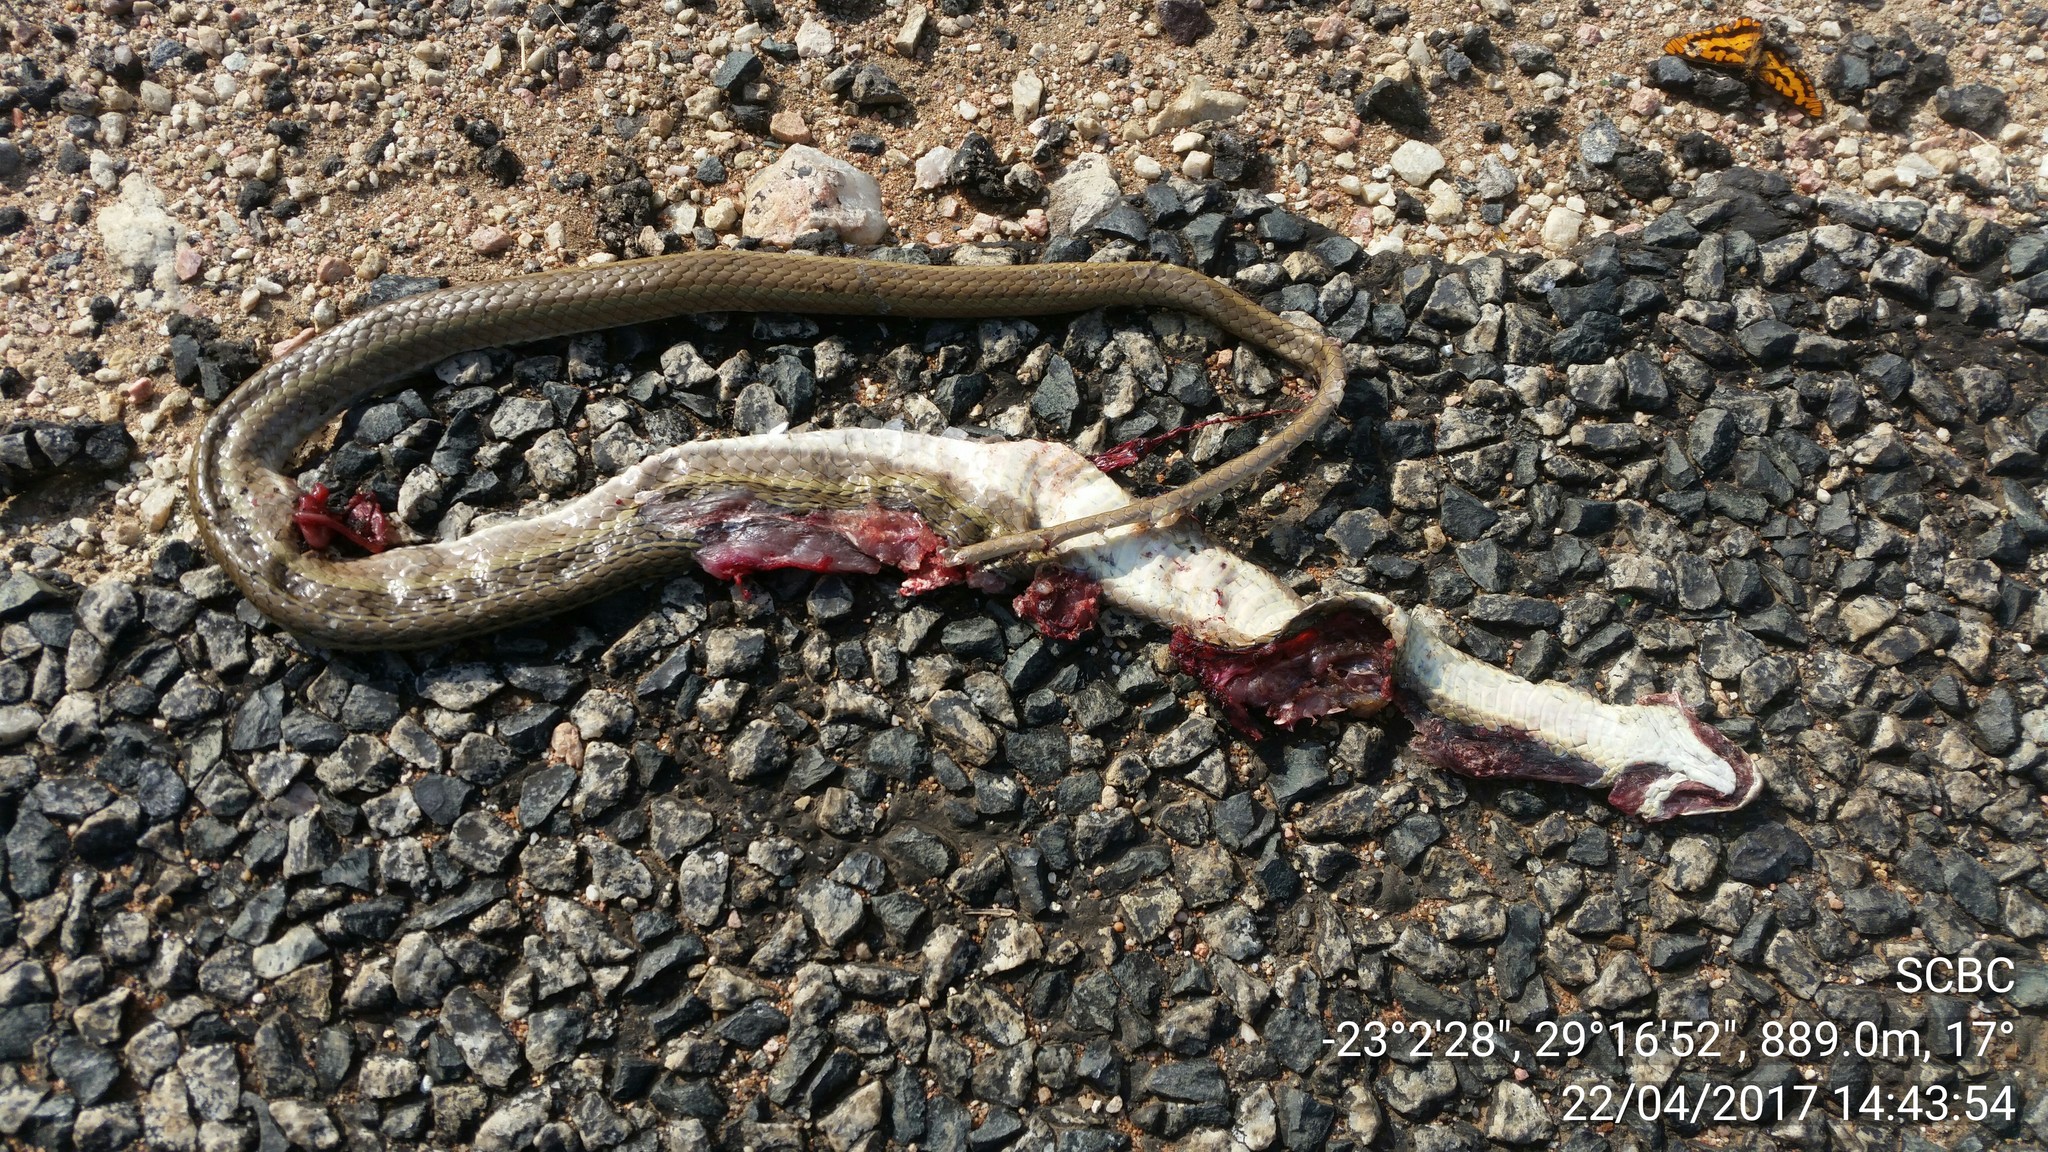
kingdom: Animalia
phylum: Chordata
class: Squamata
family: Psammophiidae
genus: Psammophis
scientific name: Psammophis brevirostris
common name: Short-snouted grass snake
